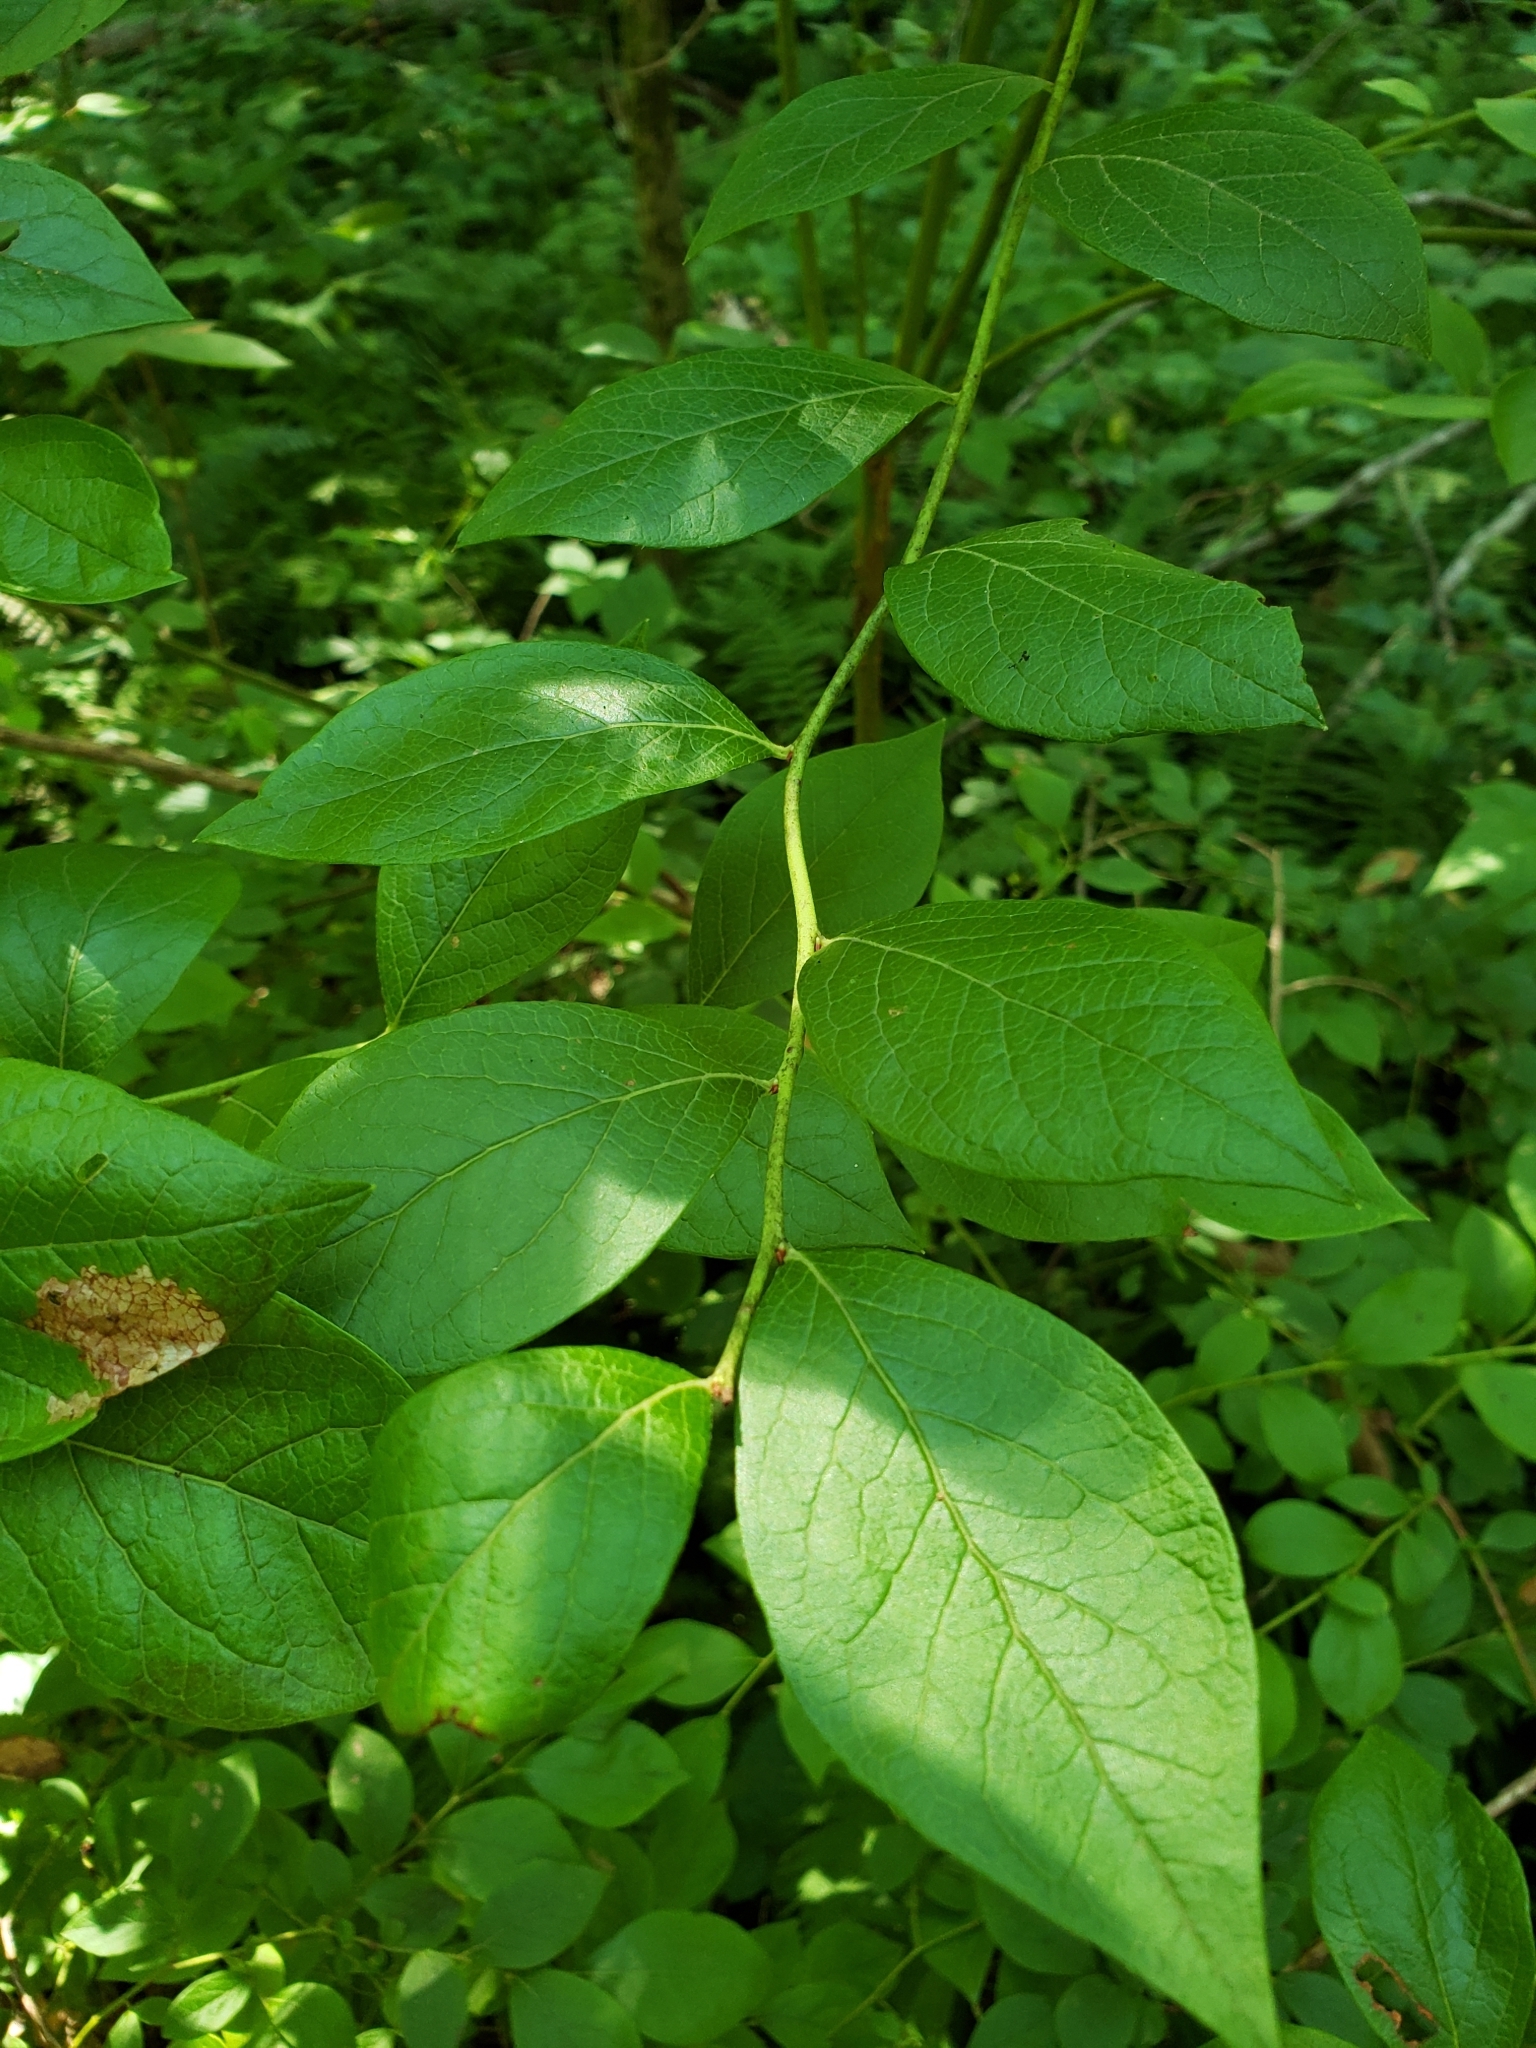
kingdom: Animalia
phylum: Arthropoda
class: Insecta
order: Hymenoptera
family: Pteromalidae
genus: Hemadas
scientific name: Hemadas nubilipennis
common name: Blueberry stem gall wasp
